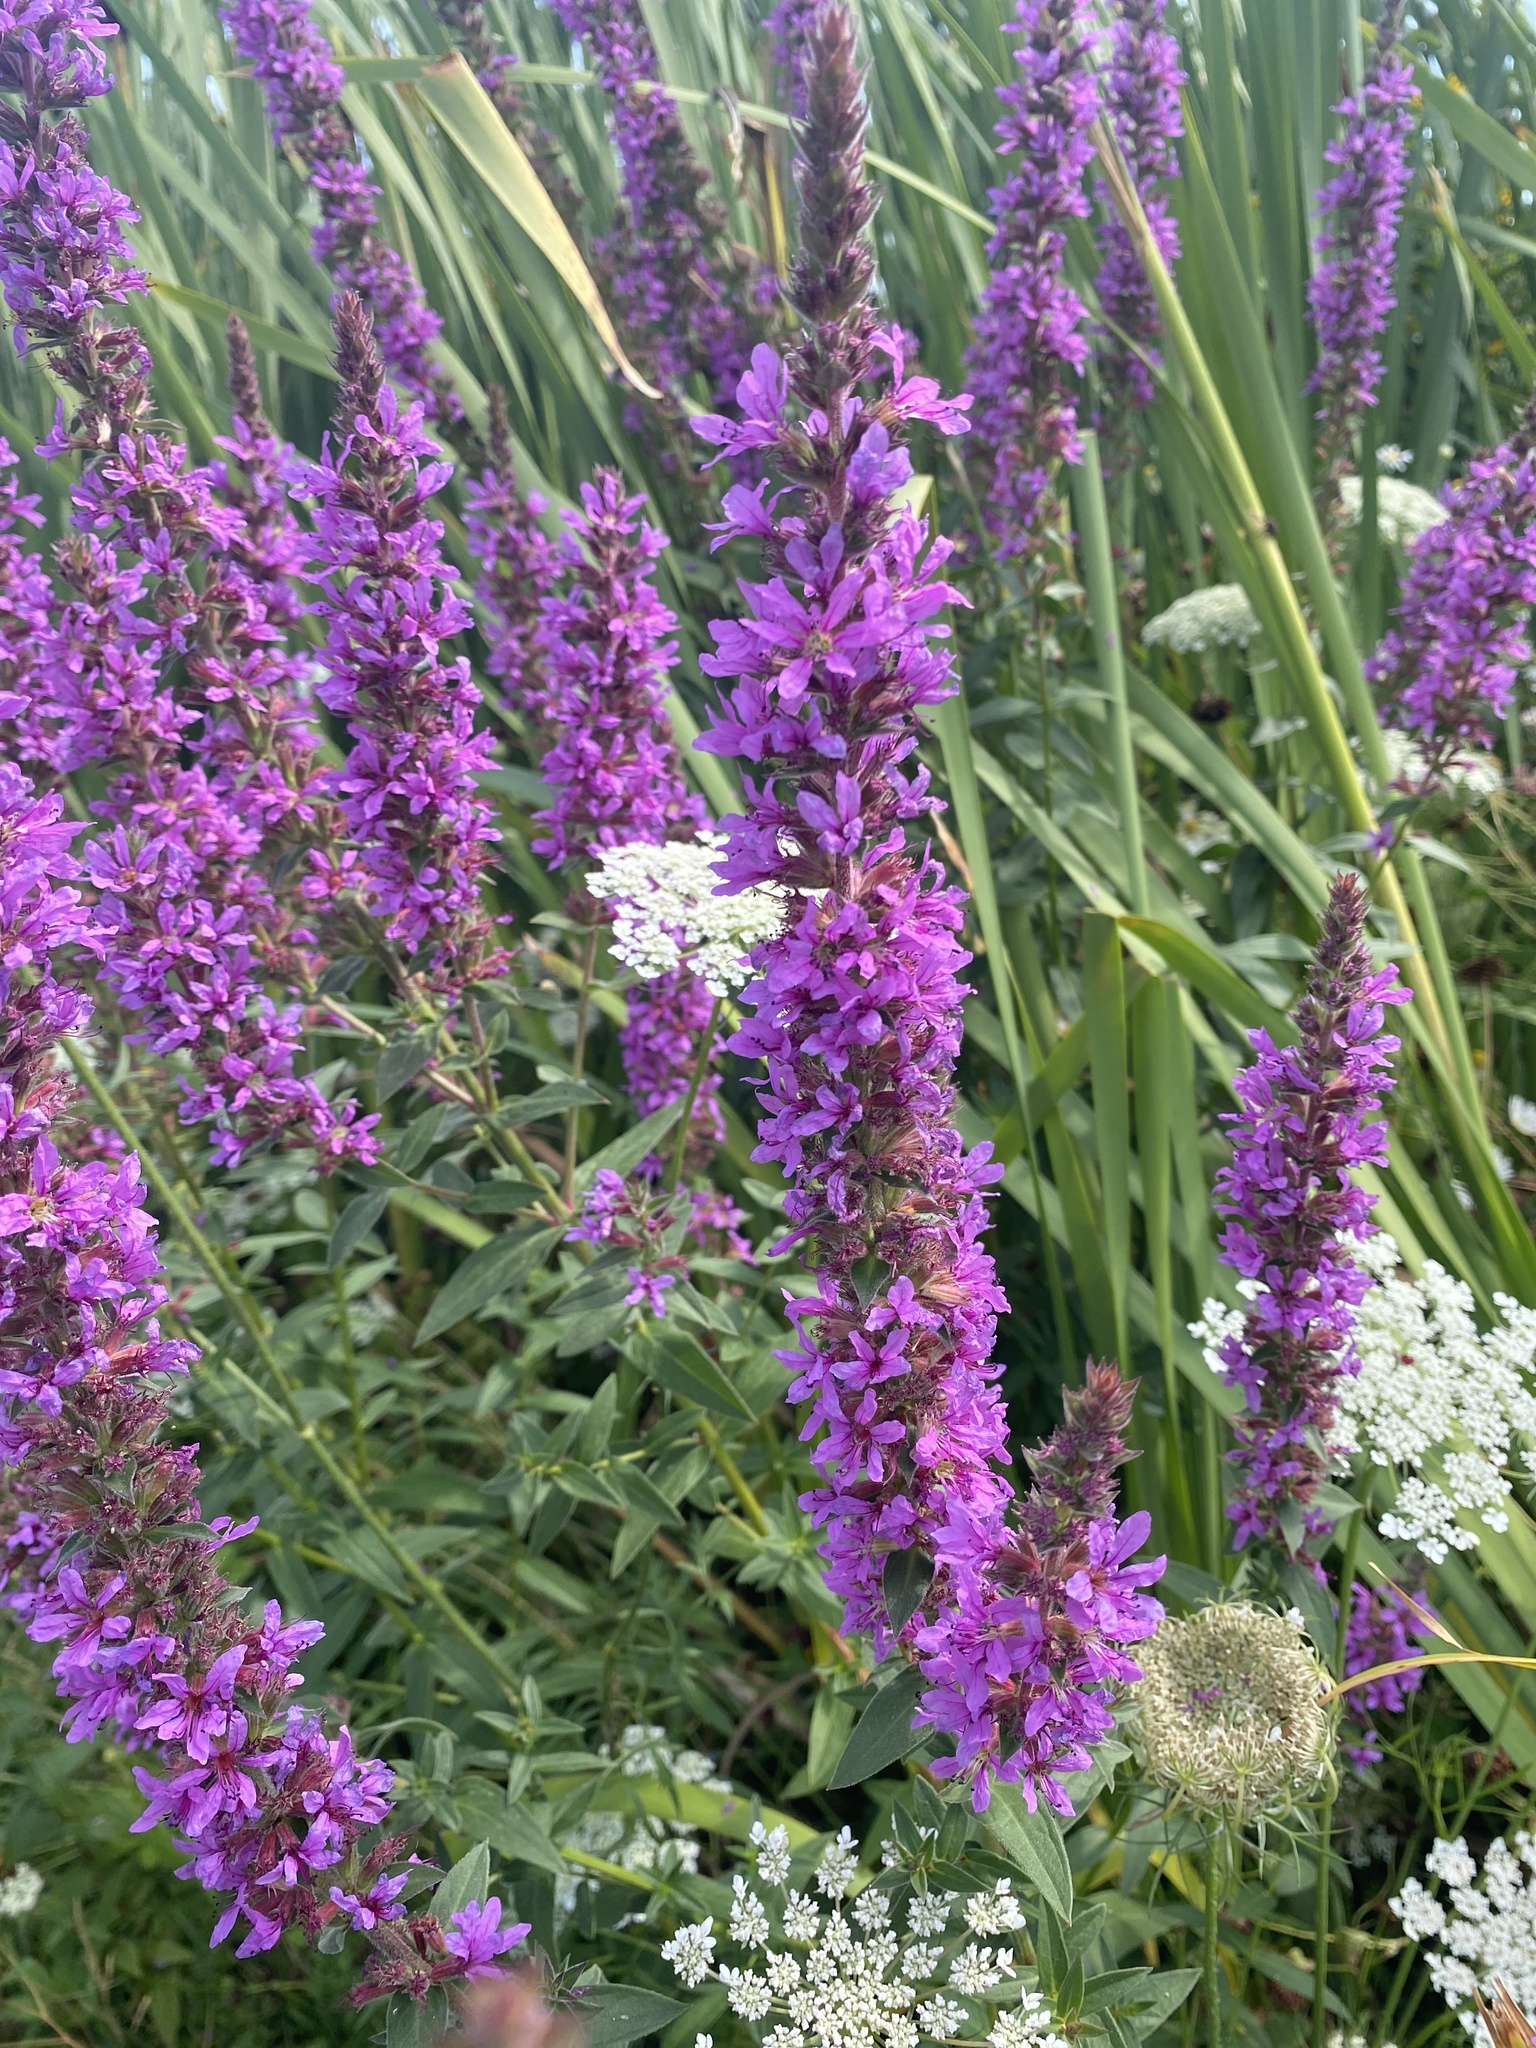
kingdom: Plantae
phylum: Tracheophyta
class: Magnoliopsida
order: Myrtales
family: Lythraceae
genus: Lythrum
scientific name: Lythrum salicaria
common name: Purple loosestrife
